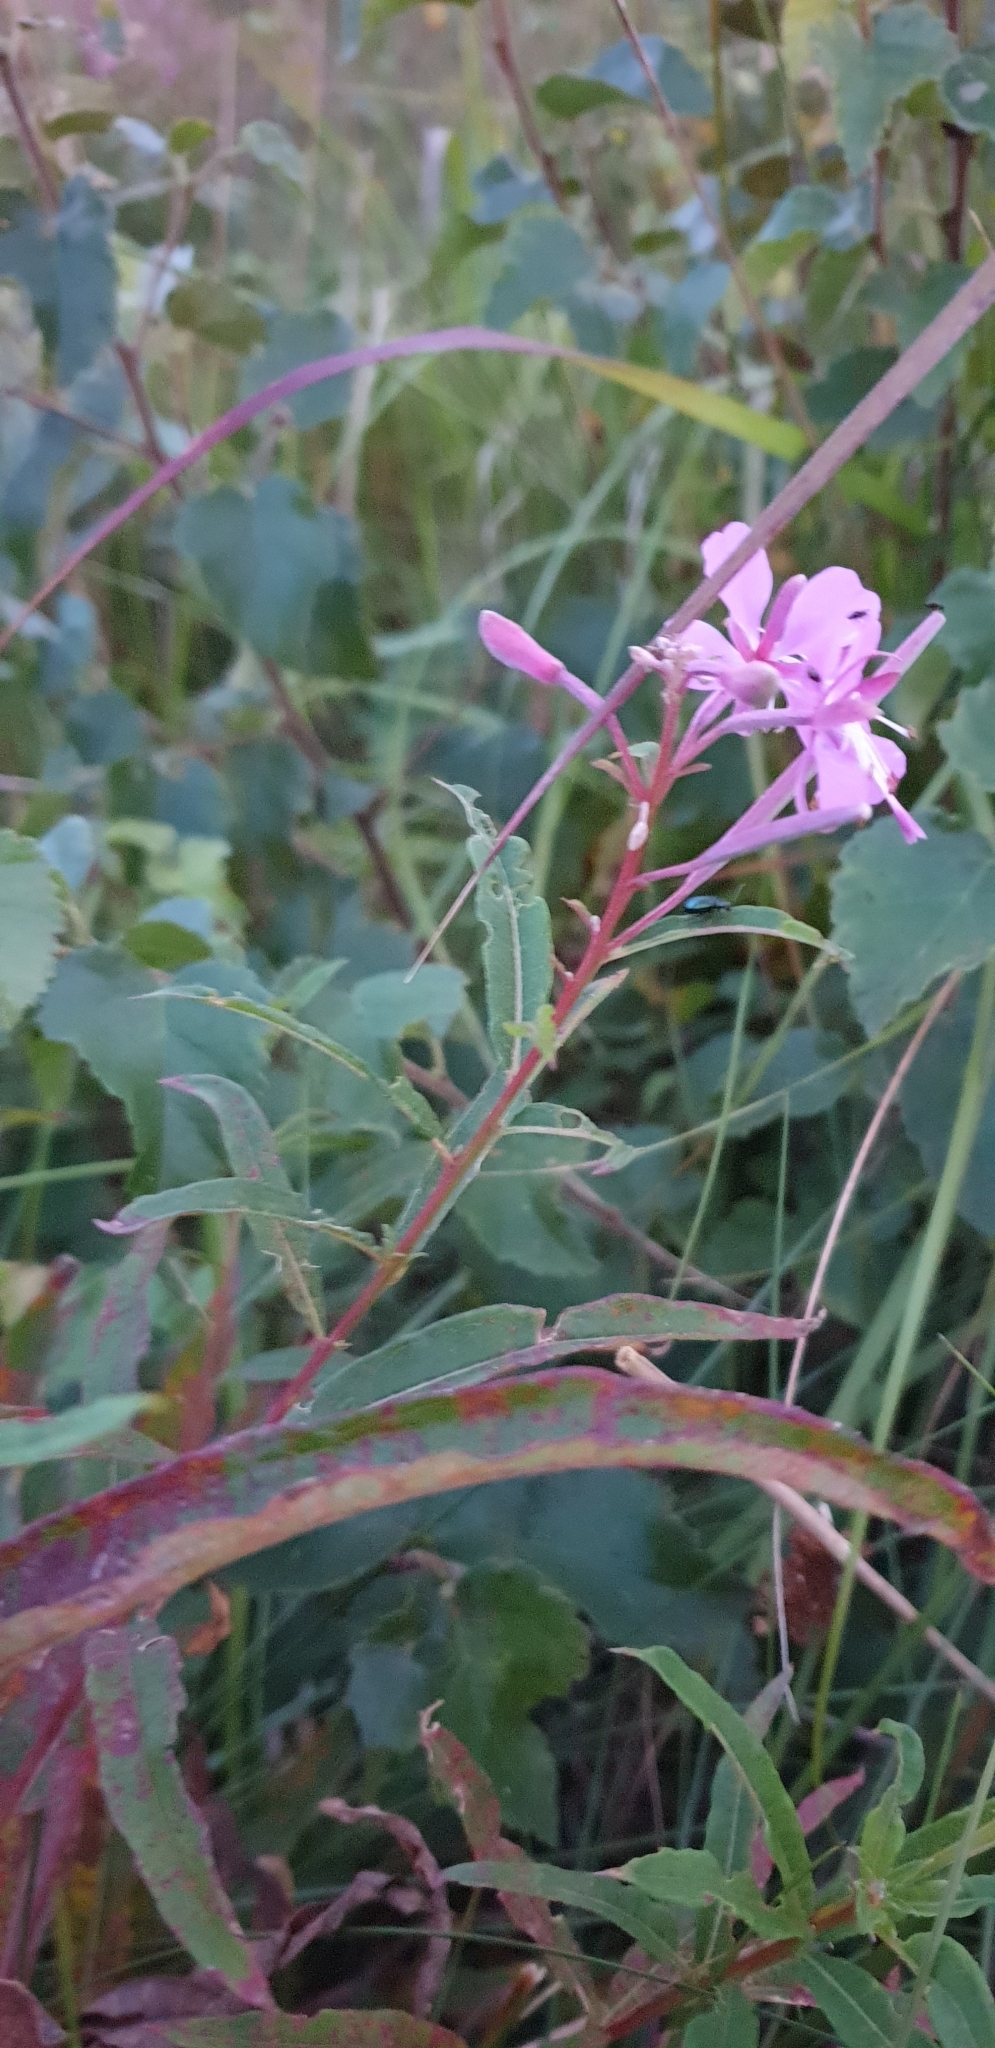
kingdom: Plantae
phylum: Tracheophyta
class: Magnoliopsida
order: Myrtales
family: Onagraceae
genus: Chamaenerion
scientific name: Chamaenerion angustifolium
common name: Fireweed
